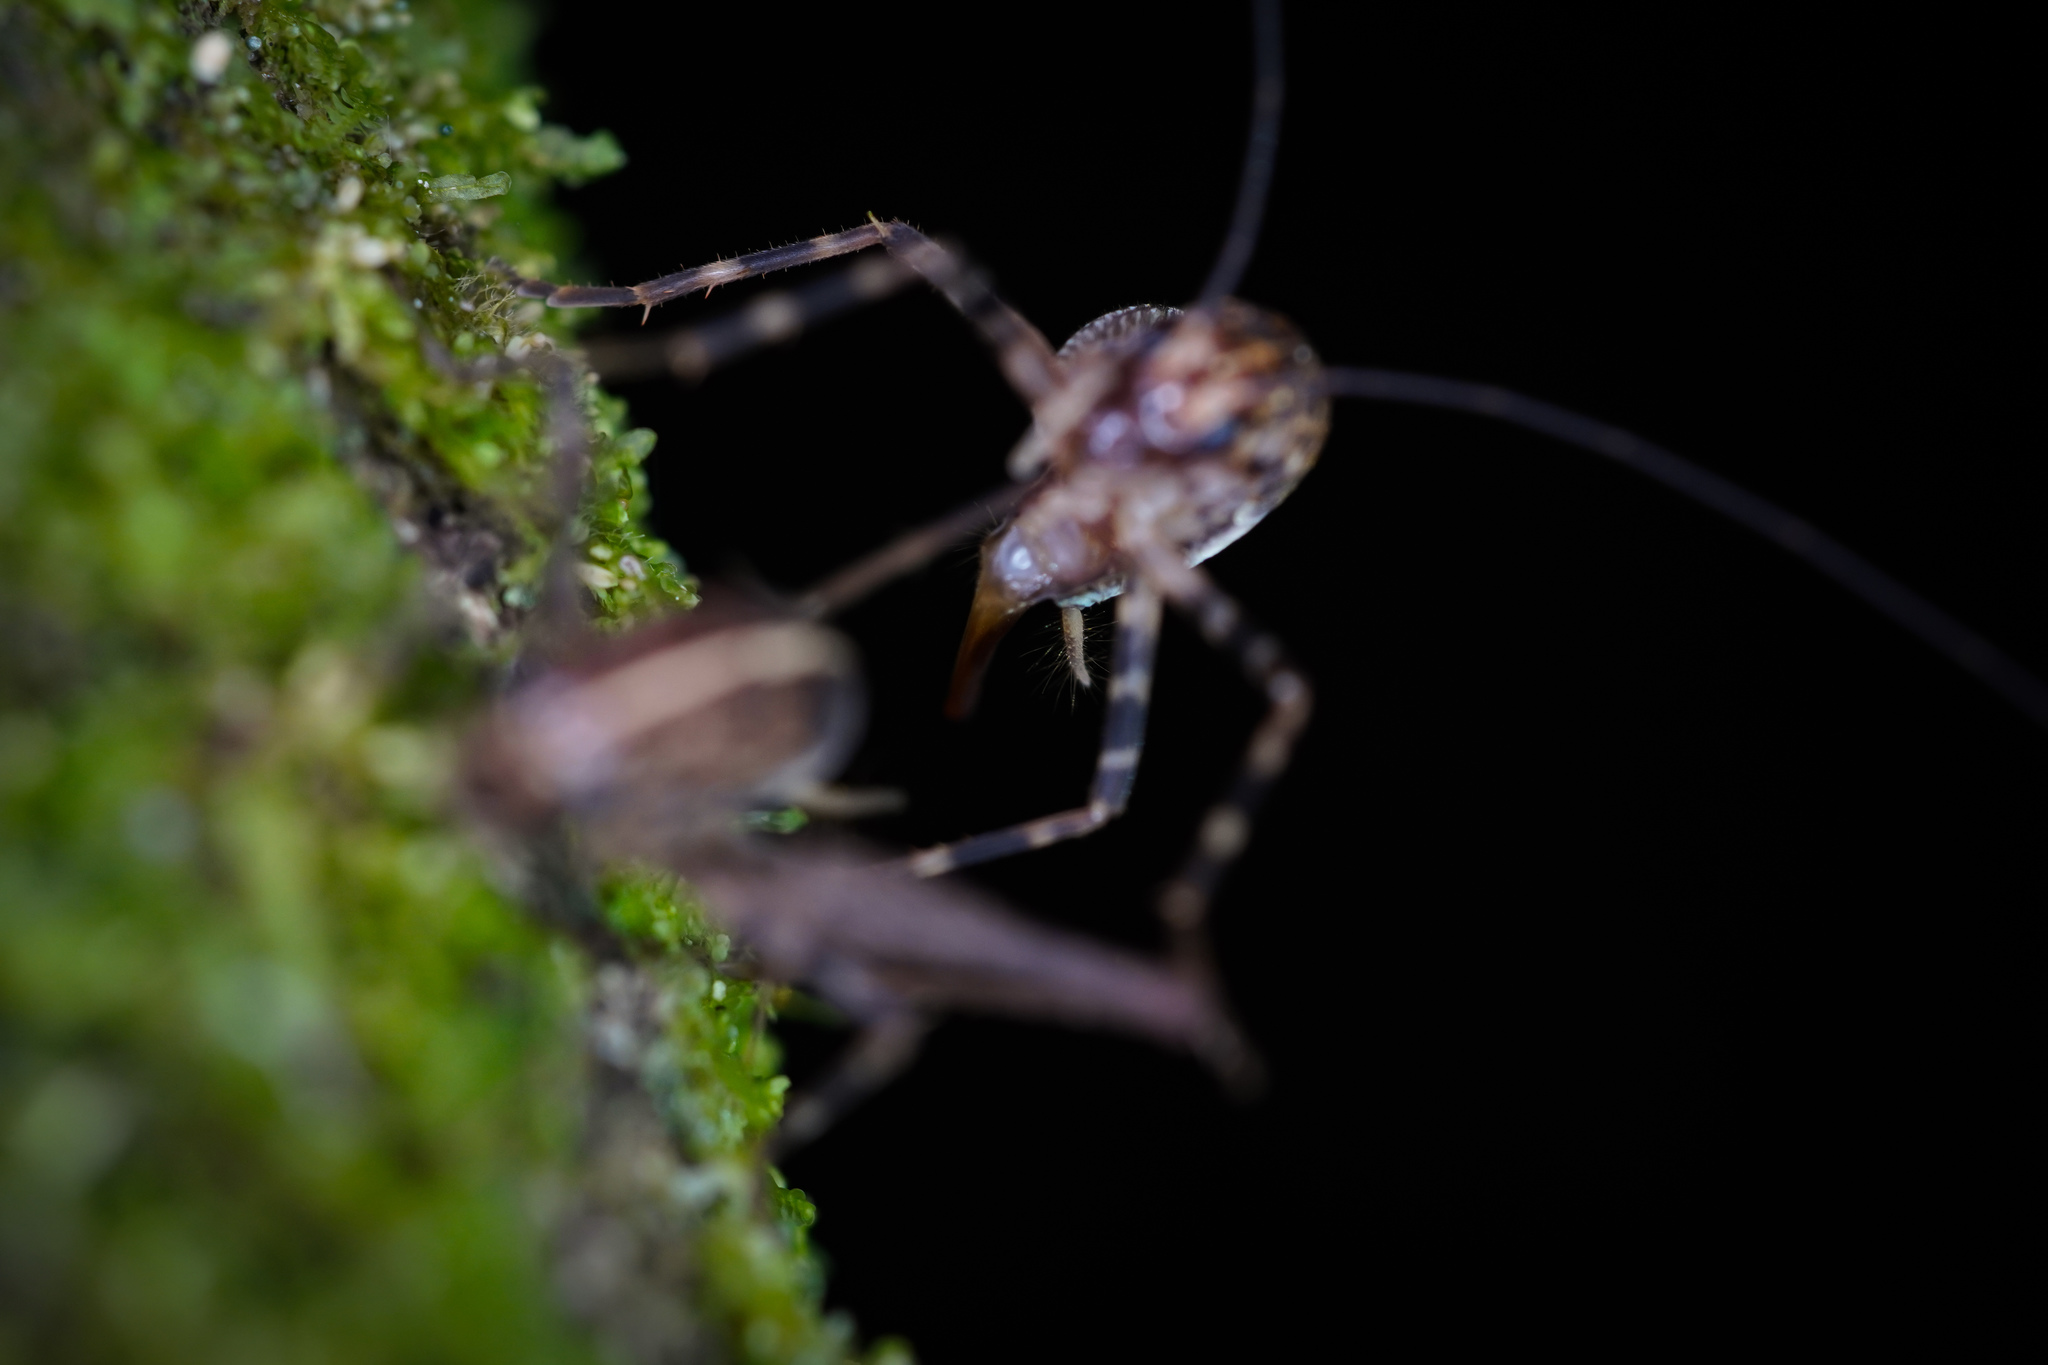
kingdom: Animalia
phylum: Arthropoda
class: Insecta
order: Orthoptera
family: Rhaphidophoridae
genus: Pleioplectron
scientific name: Pleioplectron hudsoni
